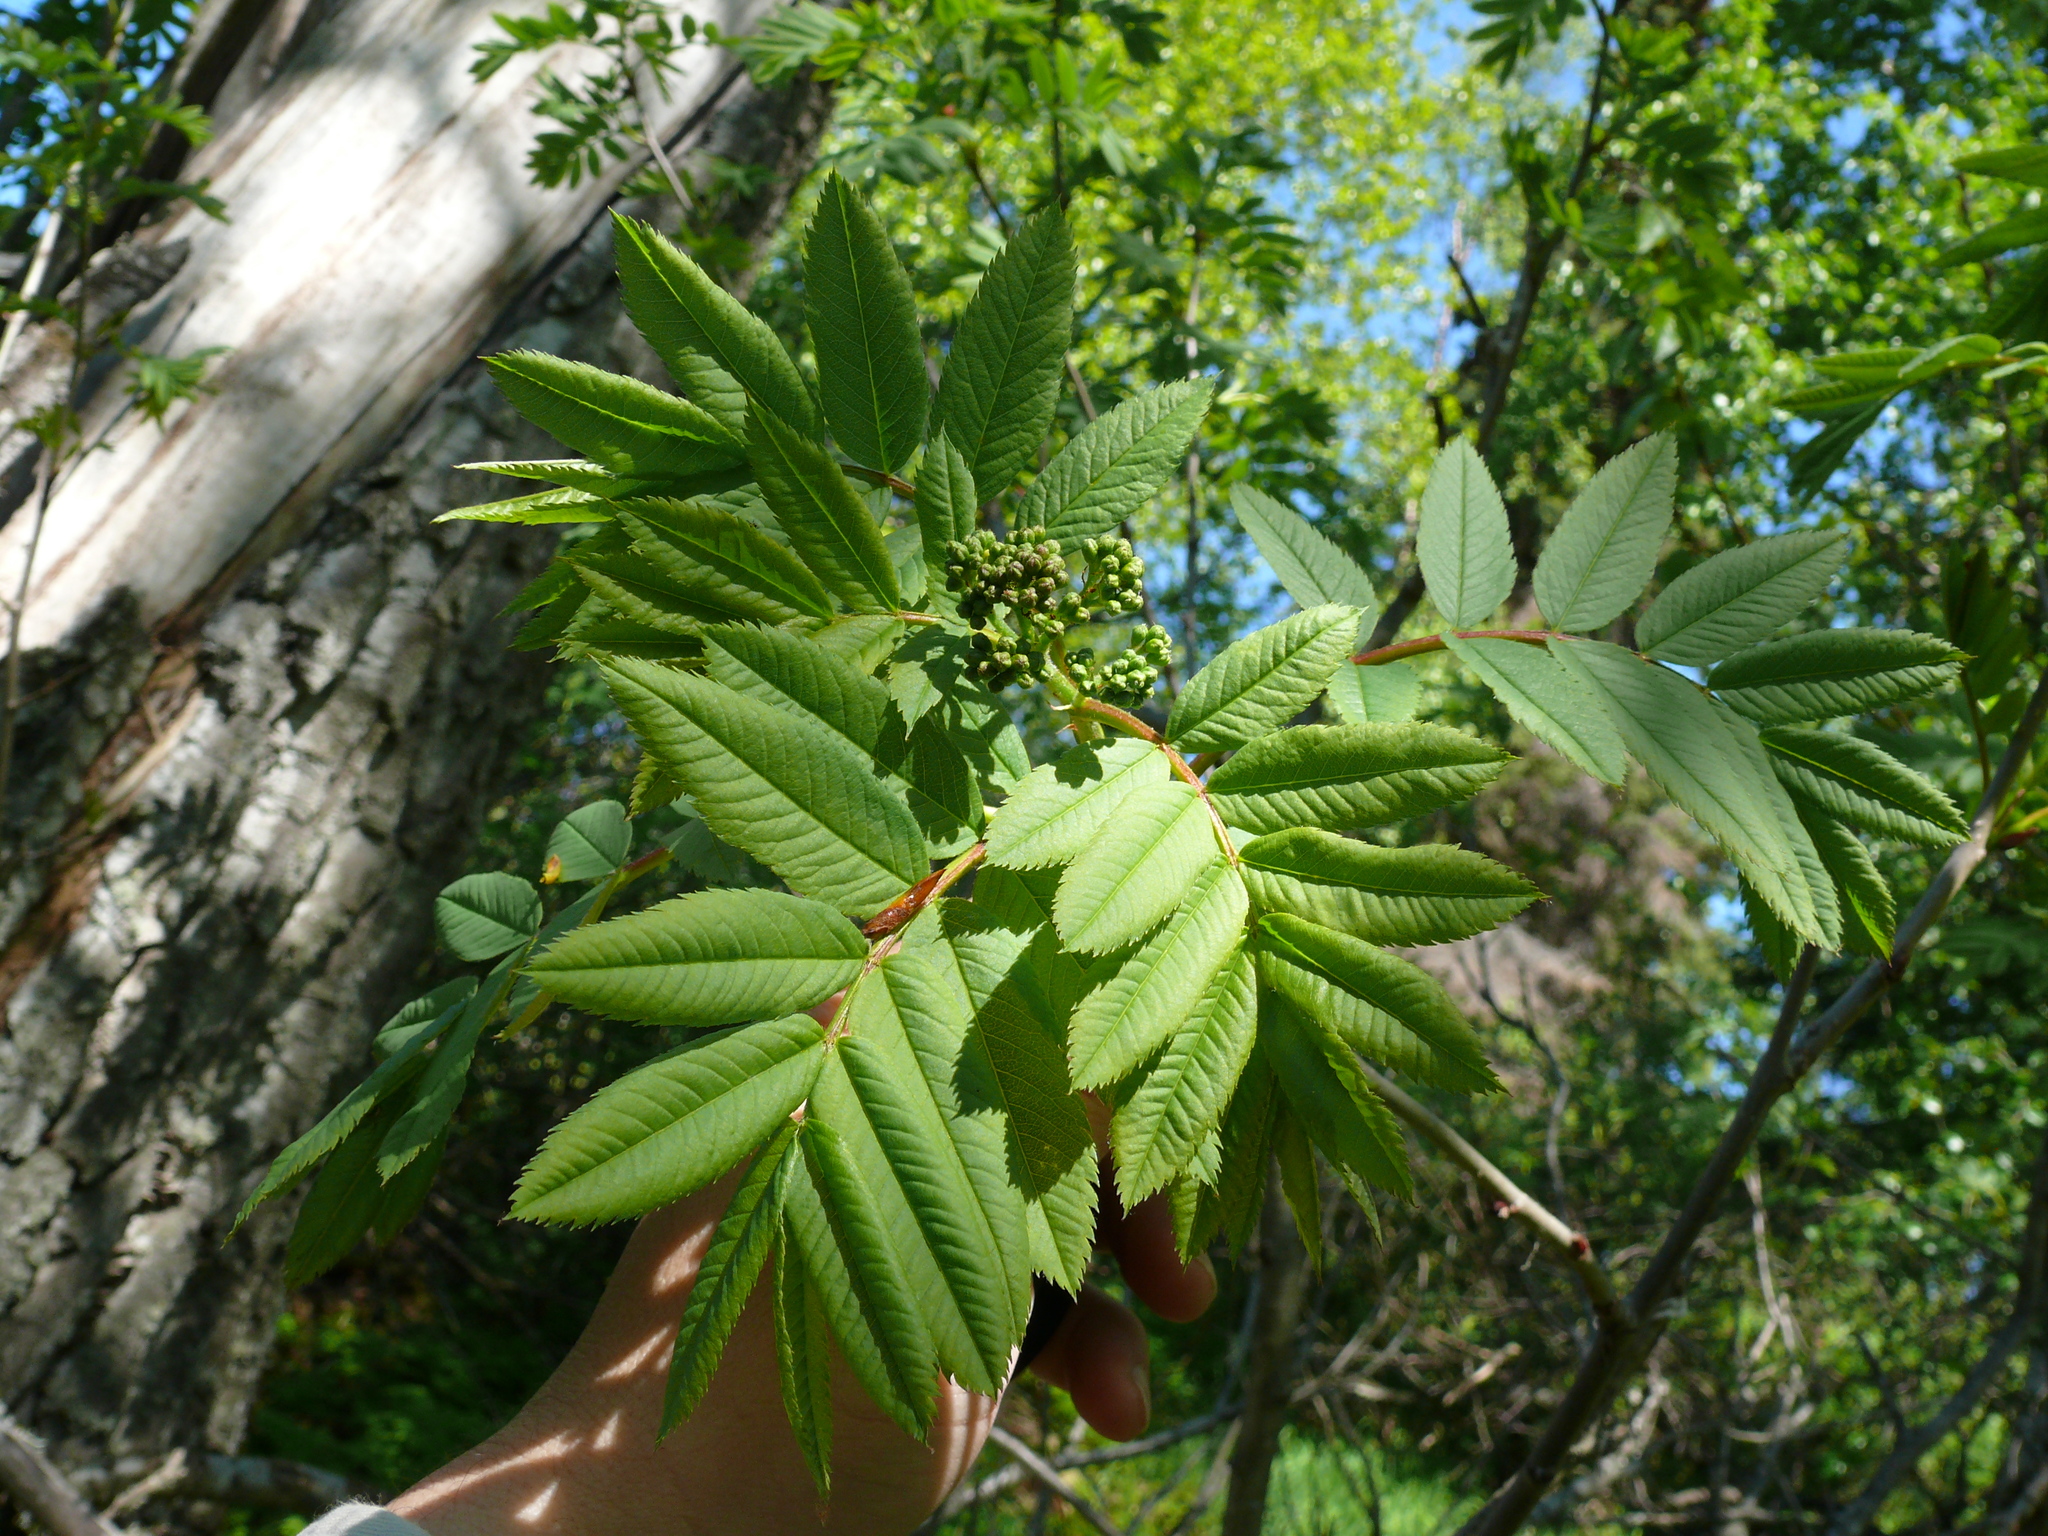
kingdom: Plantae
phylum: Tracheophyta
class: Magnoliopsida
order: Rosales
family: Rosaceae
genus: Sorbus
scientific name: Sorbus scopulina
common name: Greene's mountain-ash
